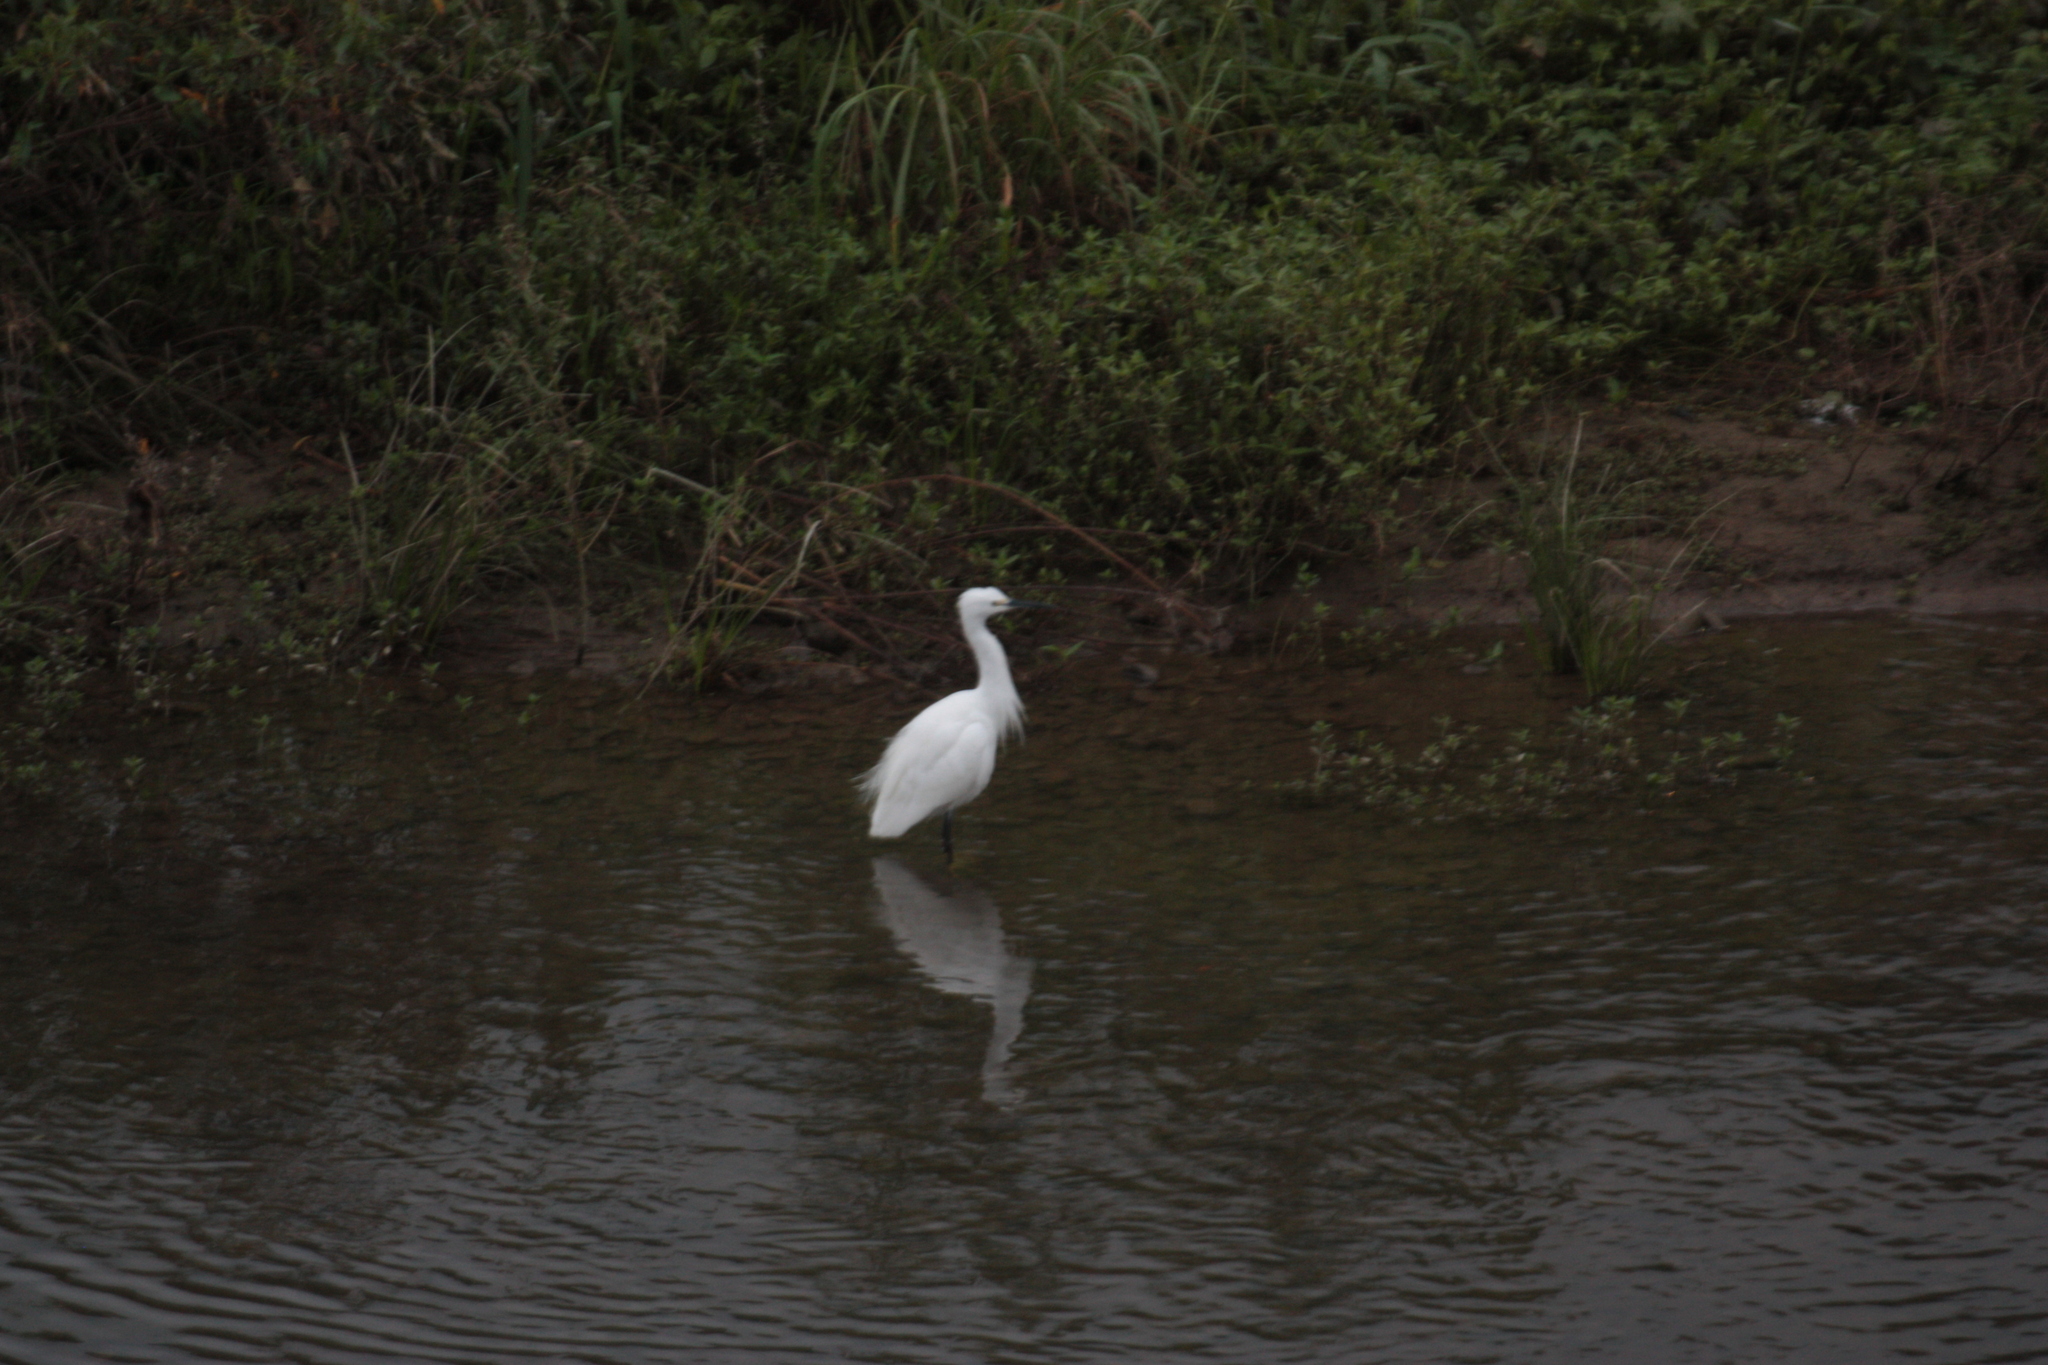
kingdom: Animalia
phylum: Chordata
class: Aves
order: Pelecaniformes
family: Ardeidae
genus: Egretta
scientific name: Egretta garzetta
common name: Little egret
